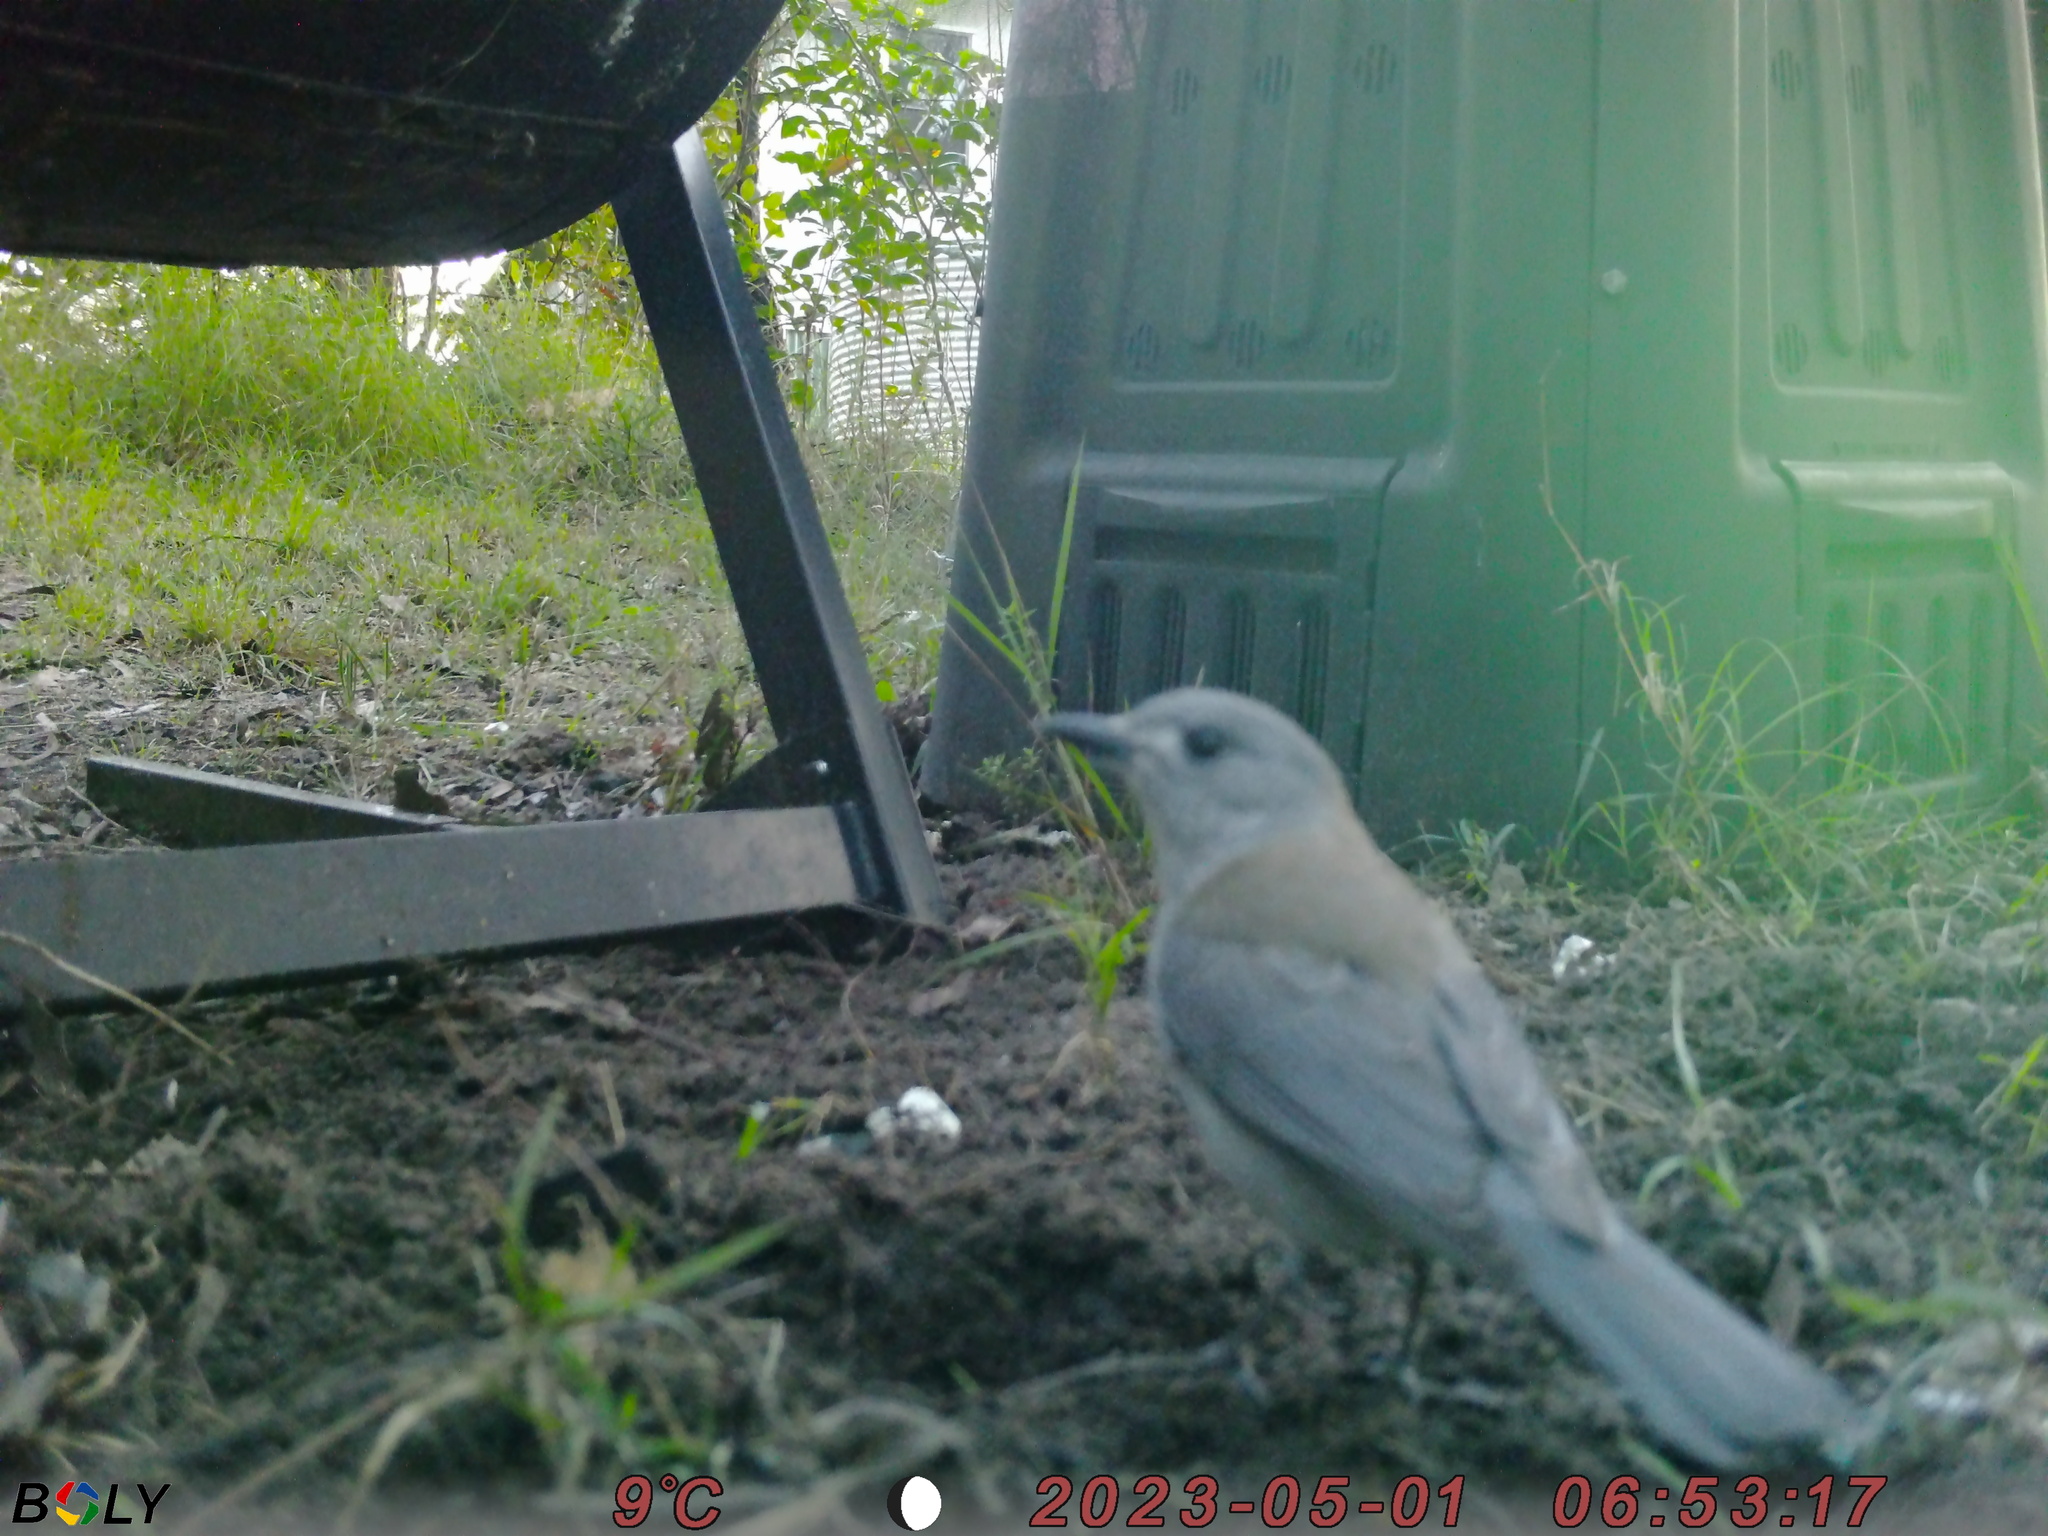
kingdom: Animalia
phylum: Chordata
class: Aves
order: Passeriformes
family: Pachycephalidae
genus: Colluricincla
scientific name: Colluricincla harmonica
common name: Grey shrikethrush
